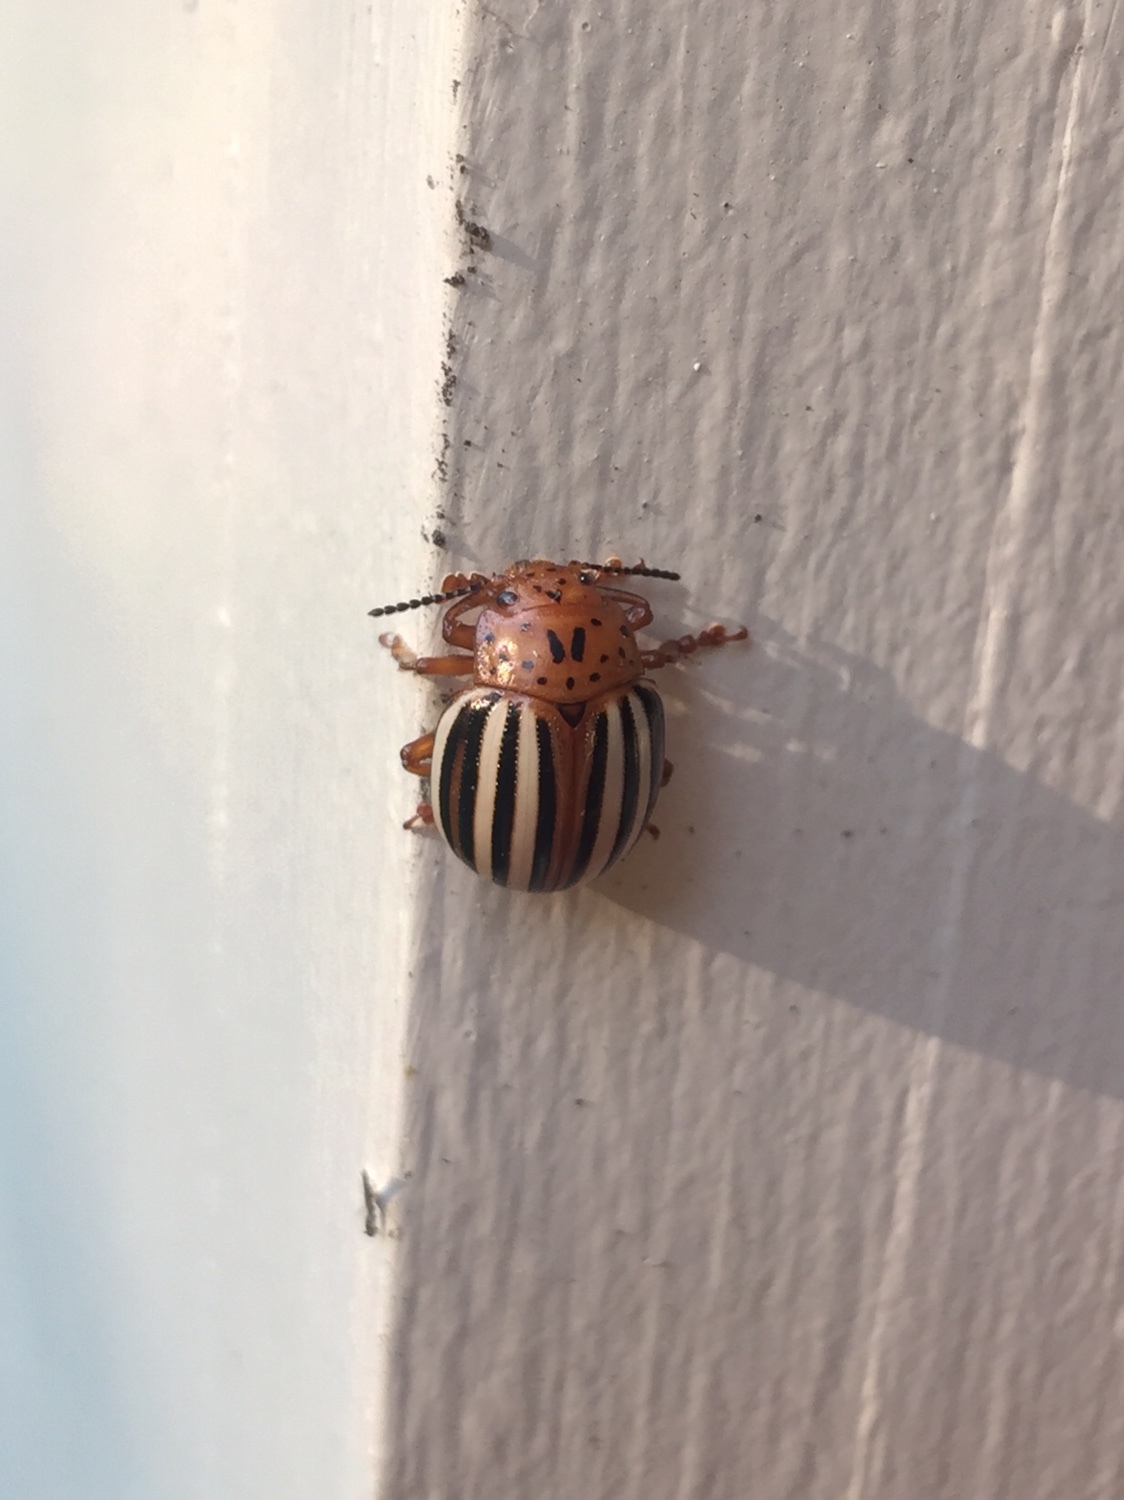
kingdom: Animalia
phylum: Arthropoda
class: Insecta
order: Coleoptera
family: Chrysomelidae
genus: Leptinotarsa
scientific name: Leptinotarsa juncta
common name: False potato beetle
